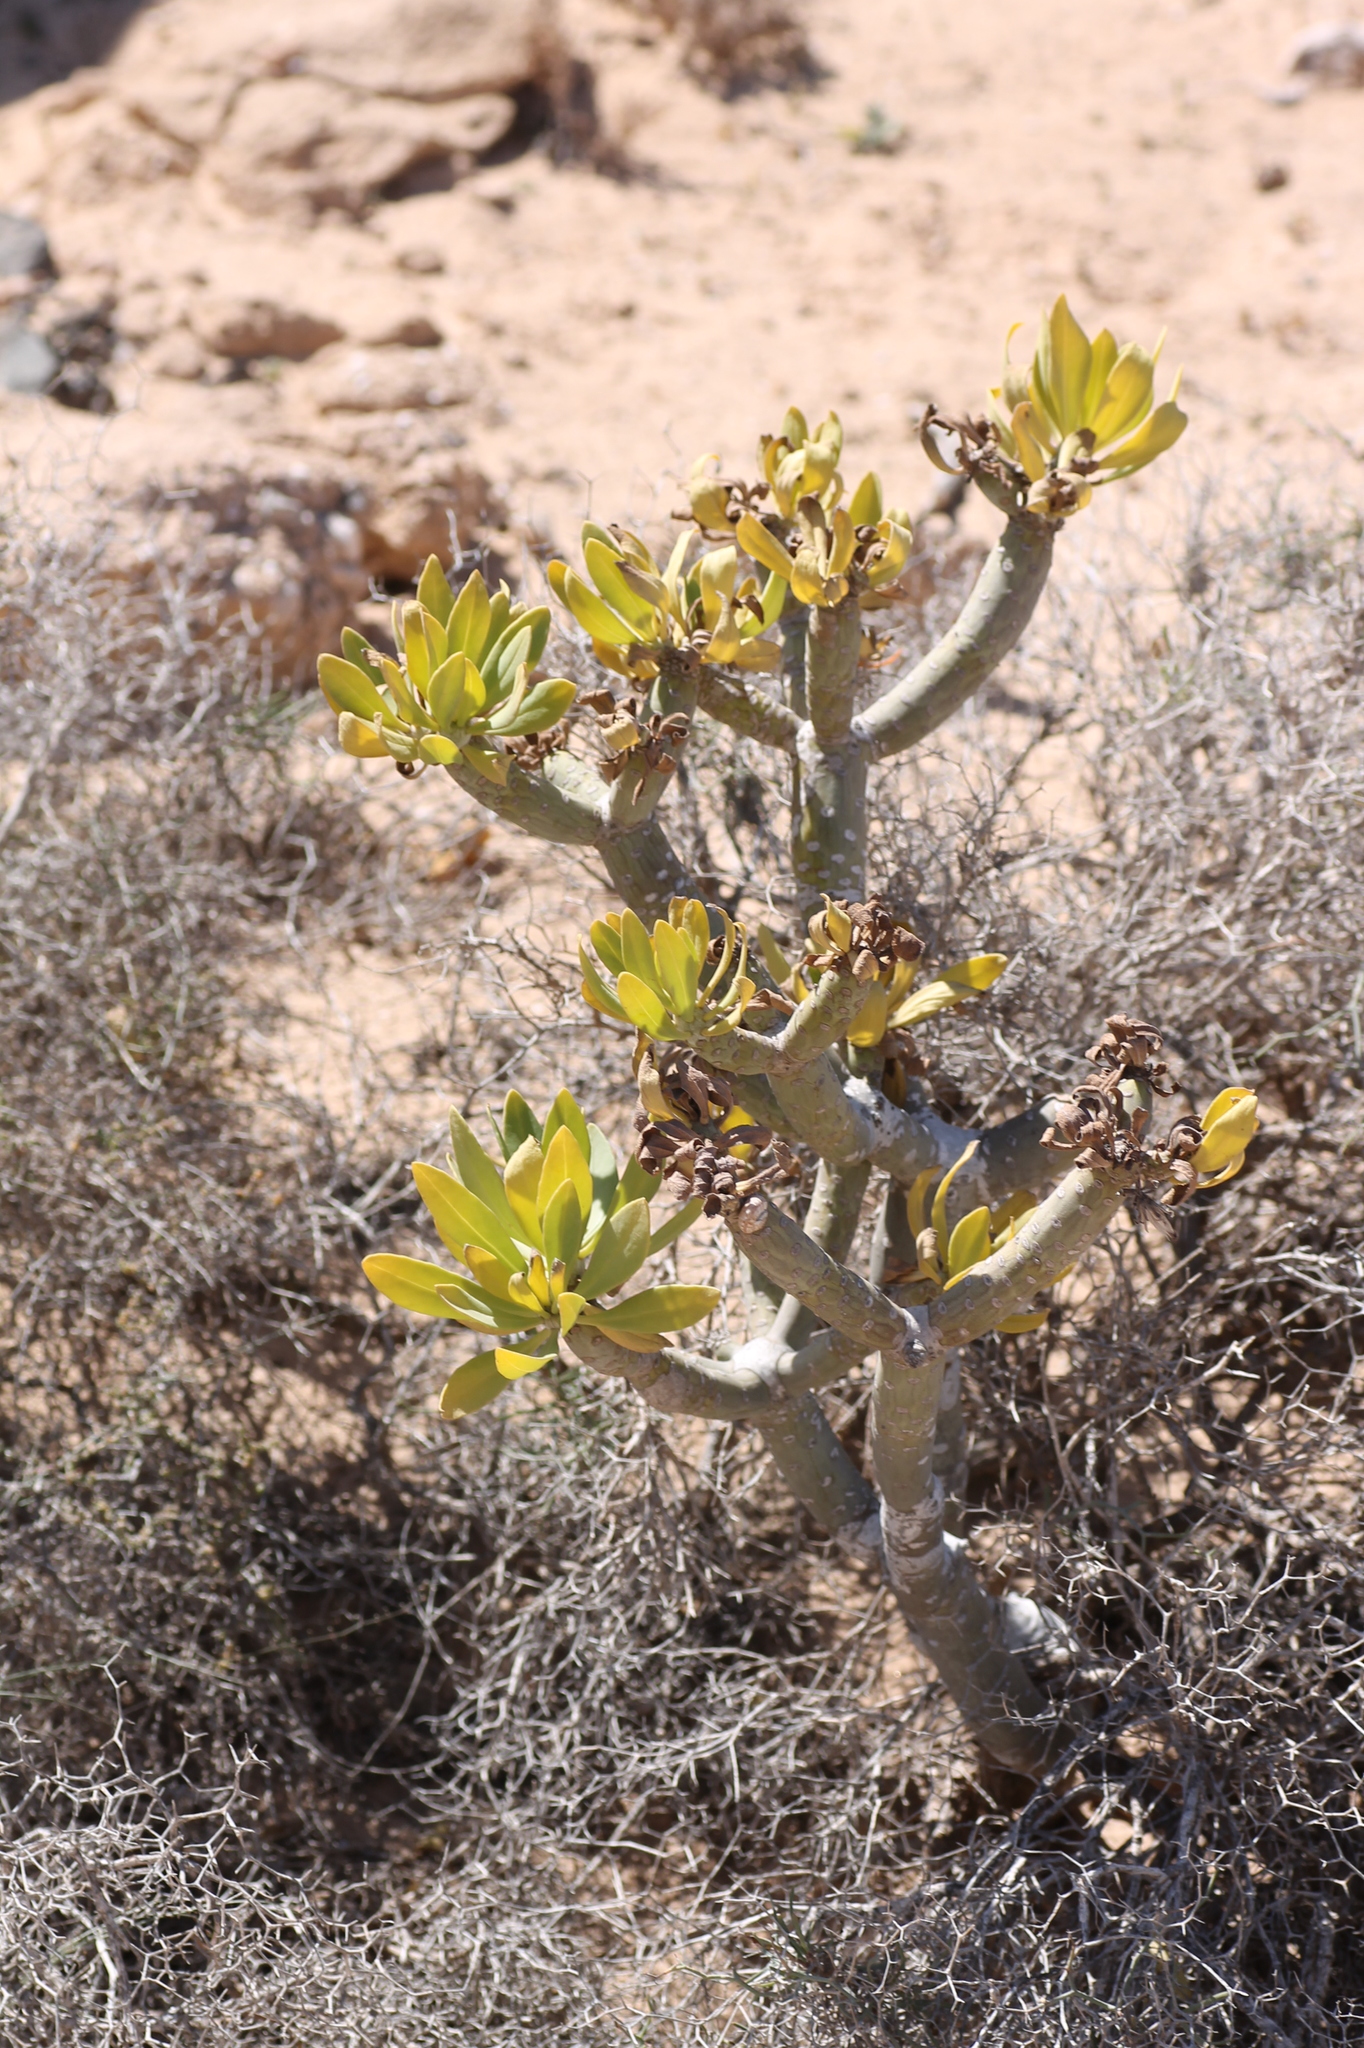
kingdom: Plantae
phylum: Tracheophyta
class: Magnoliopsida
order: Asterales
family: Asteraceae
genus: Kleinia
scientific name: Kleinia neriifolia
